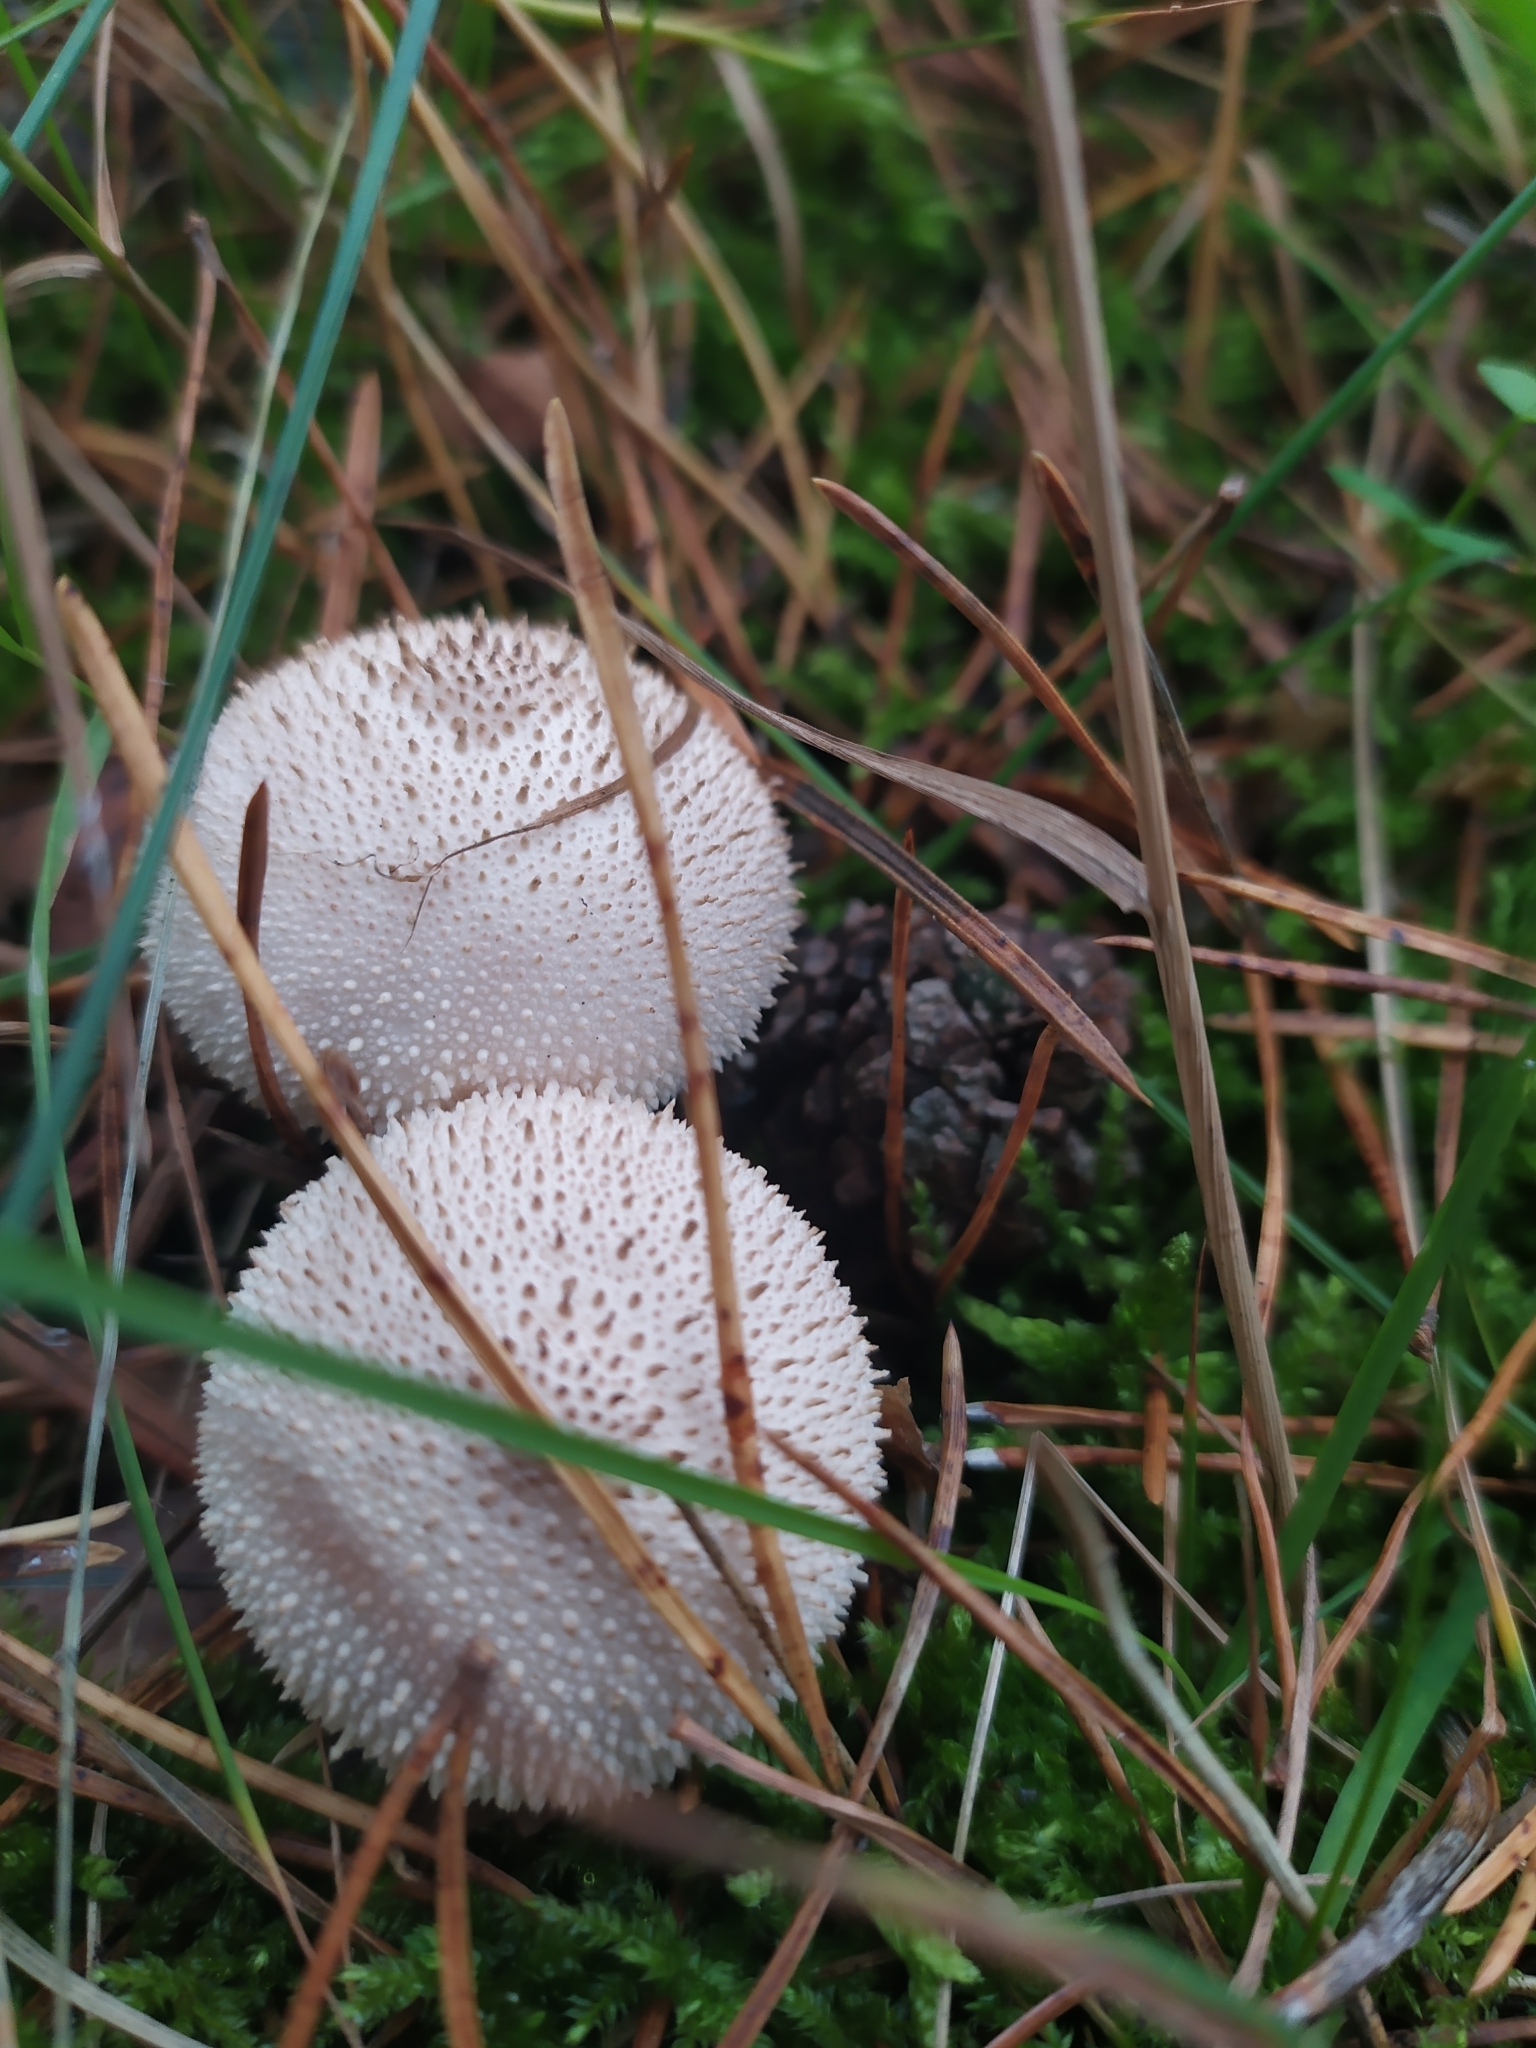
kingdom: Fungi
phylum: Basidiomycota
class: Agaricomycetes
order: Agaricales
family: Lycoperdaceae
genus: Lycoperdon
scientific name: Lycoperdon perlatum
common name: Common puffball
